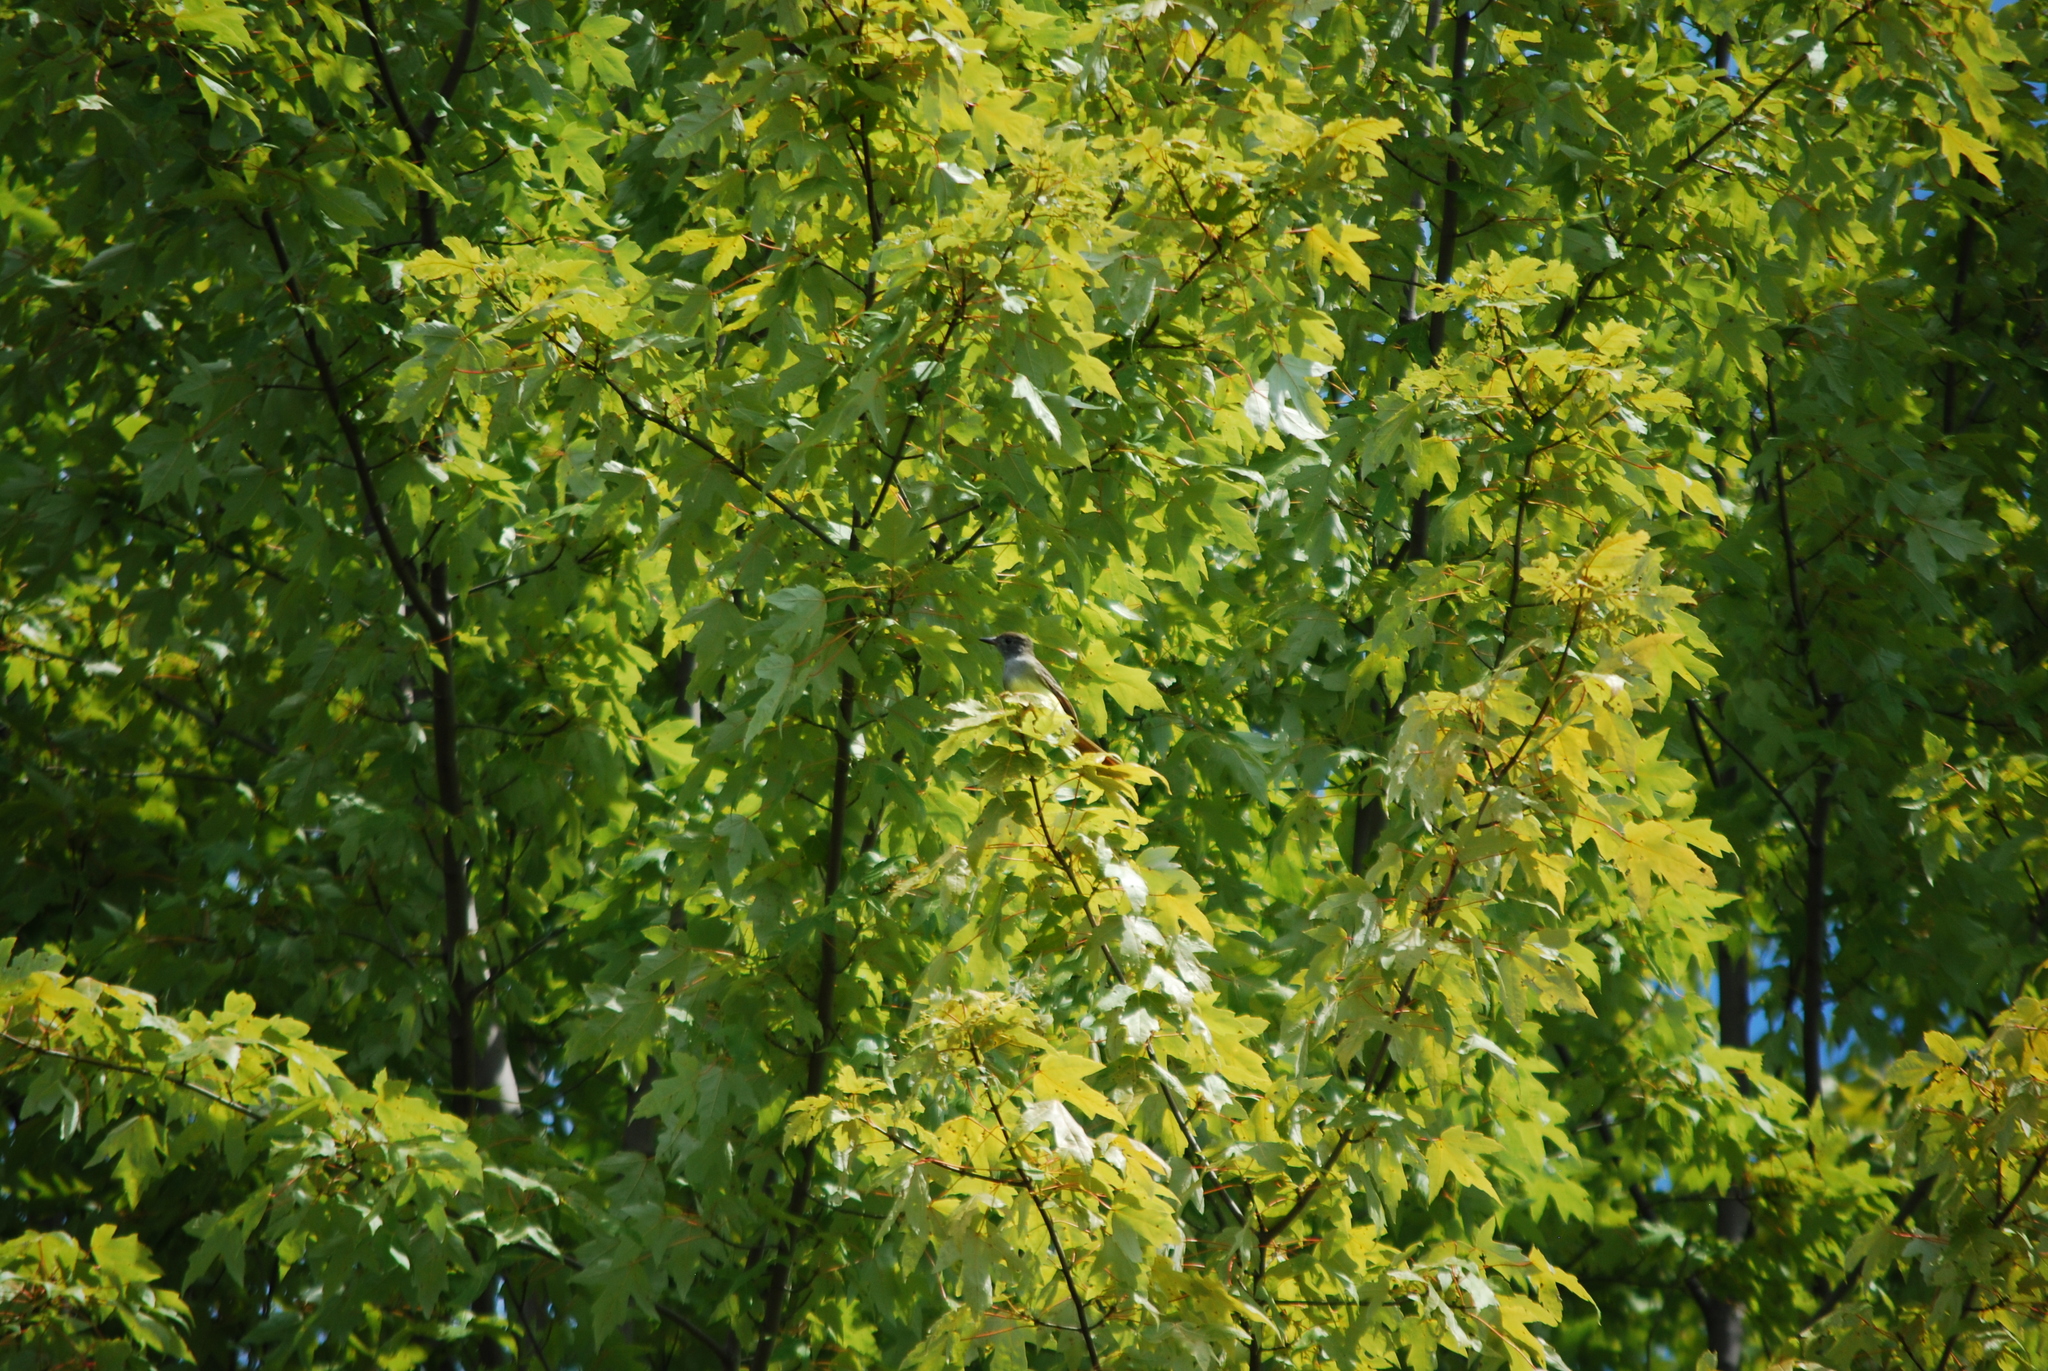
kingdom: Animalia
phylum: Chordata
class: Aves
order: Passeriformes
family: Tyrannidae
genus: Myiarchus
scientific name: Myiarchus crinitus
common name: Great crested flycatcher
